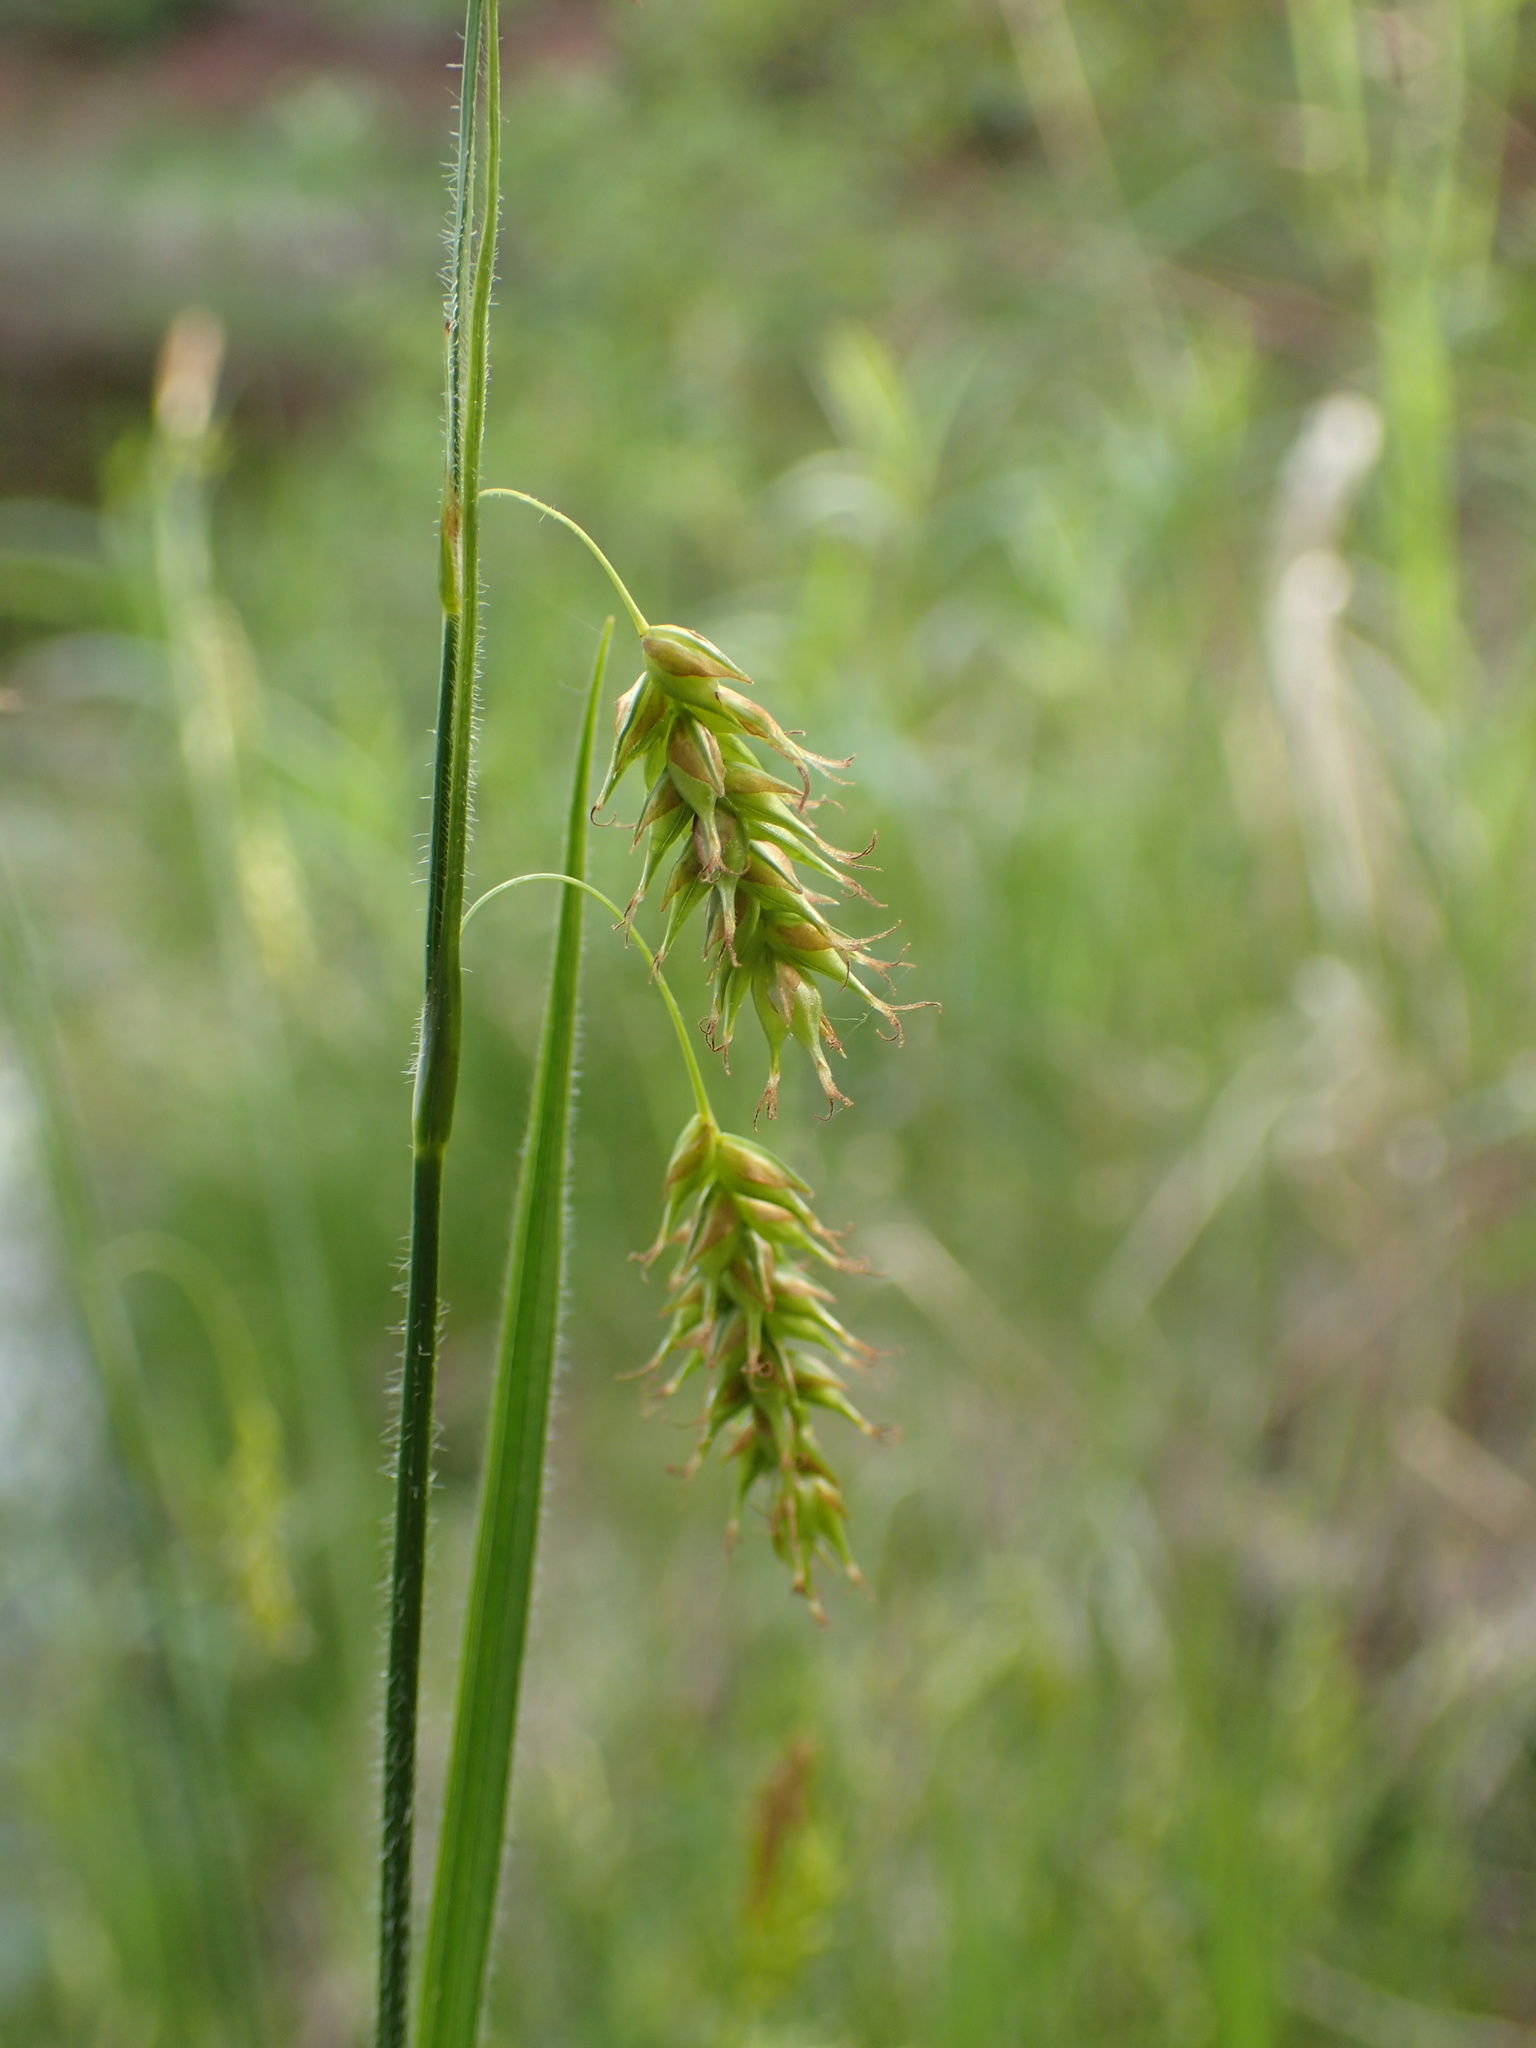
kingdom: Plantae
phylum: Tracheophyta
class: Liliopsida
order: Poales
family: Cyperaceae
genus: Carex
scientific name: Carex castanea
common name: Chestnut sedge
